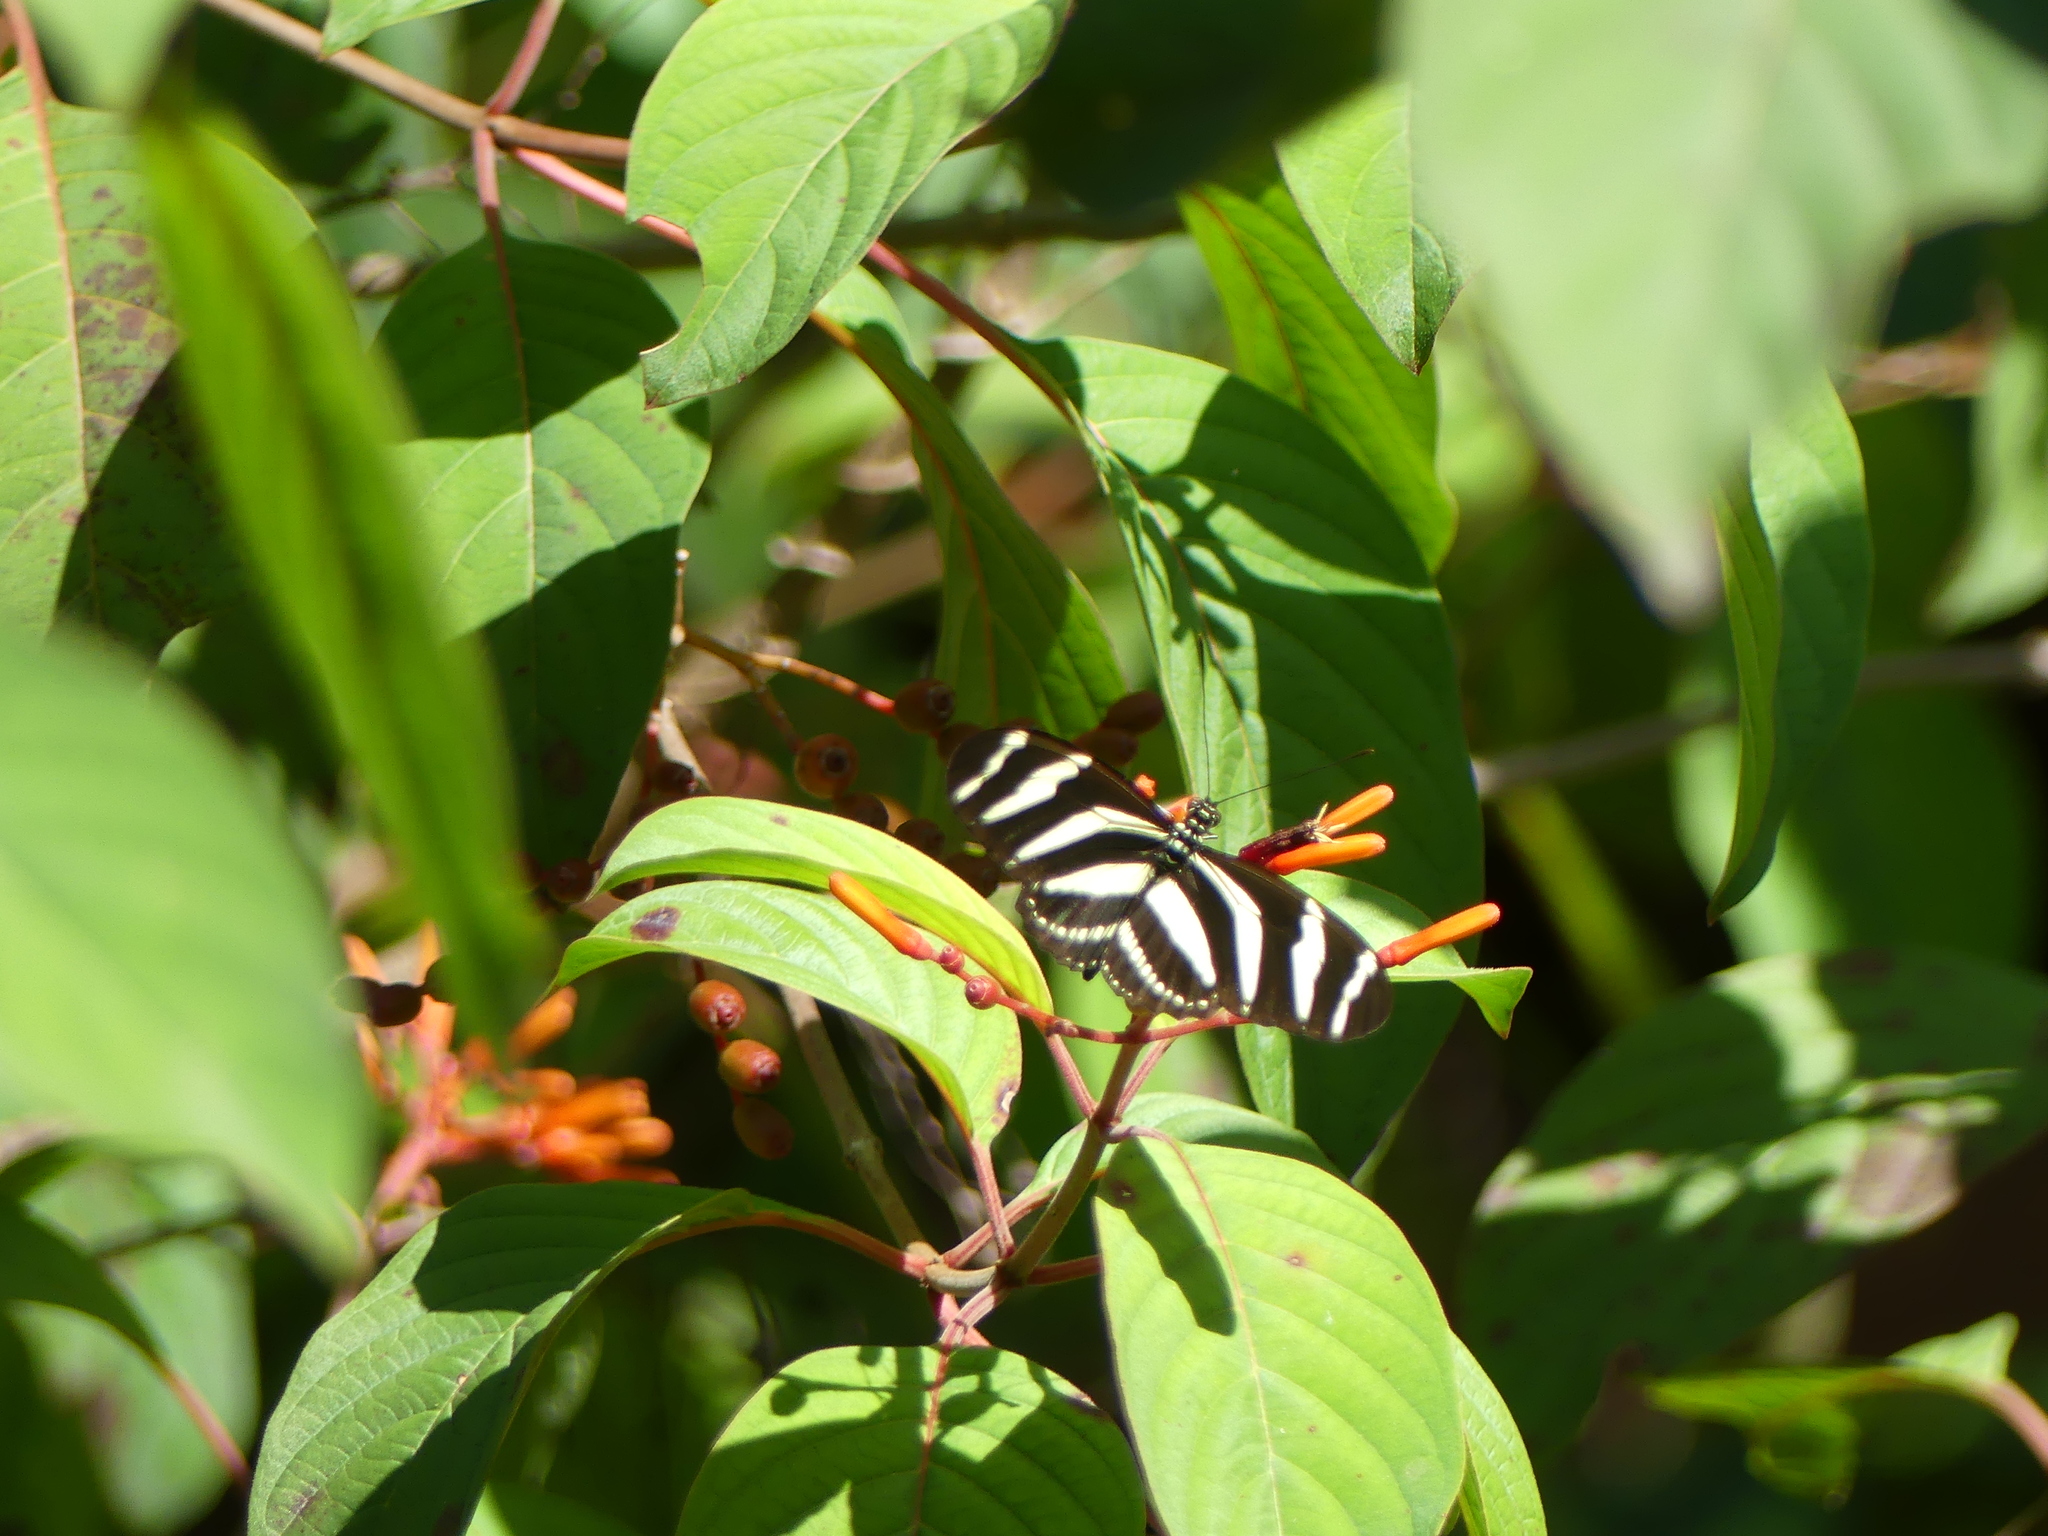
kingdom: Animalia
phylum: Arthropoda
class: Insecta
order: Lepidoptera
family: Nymphalidae
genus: Heliconius
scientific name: Heliconius charithonia
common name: Zebra long wing
